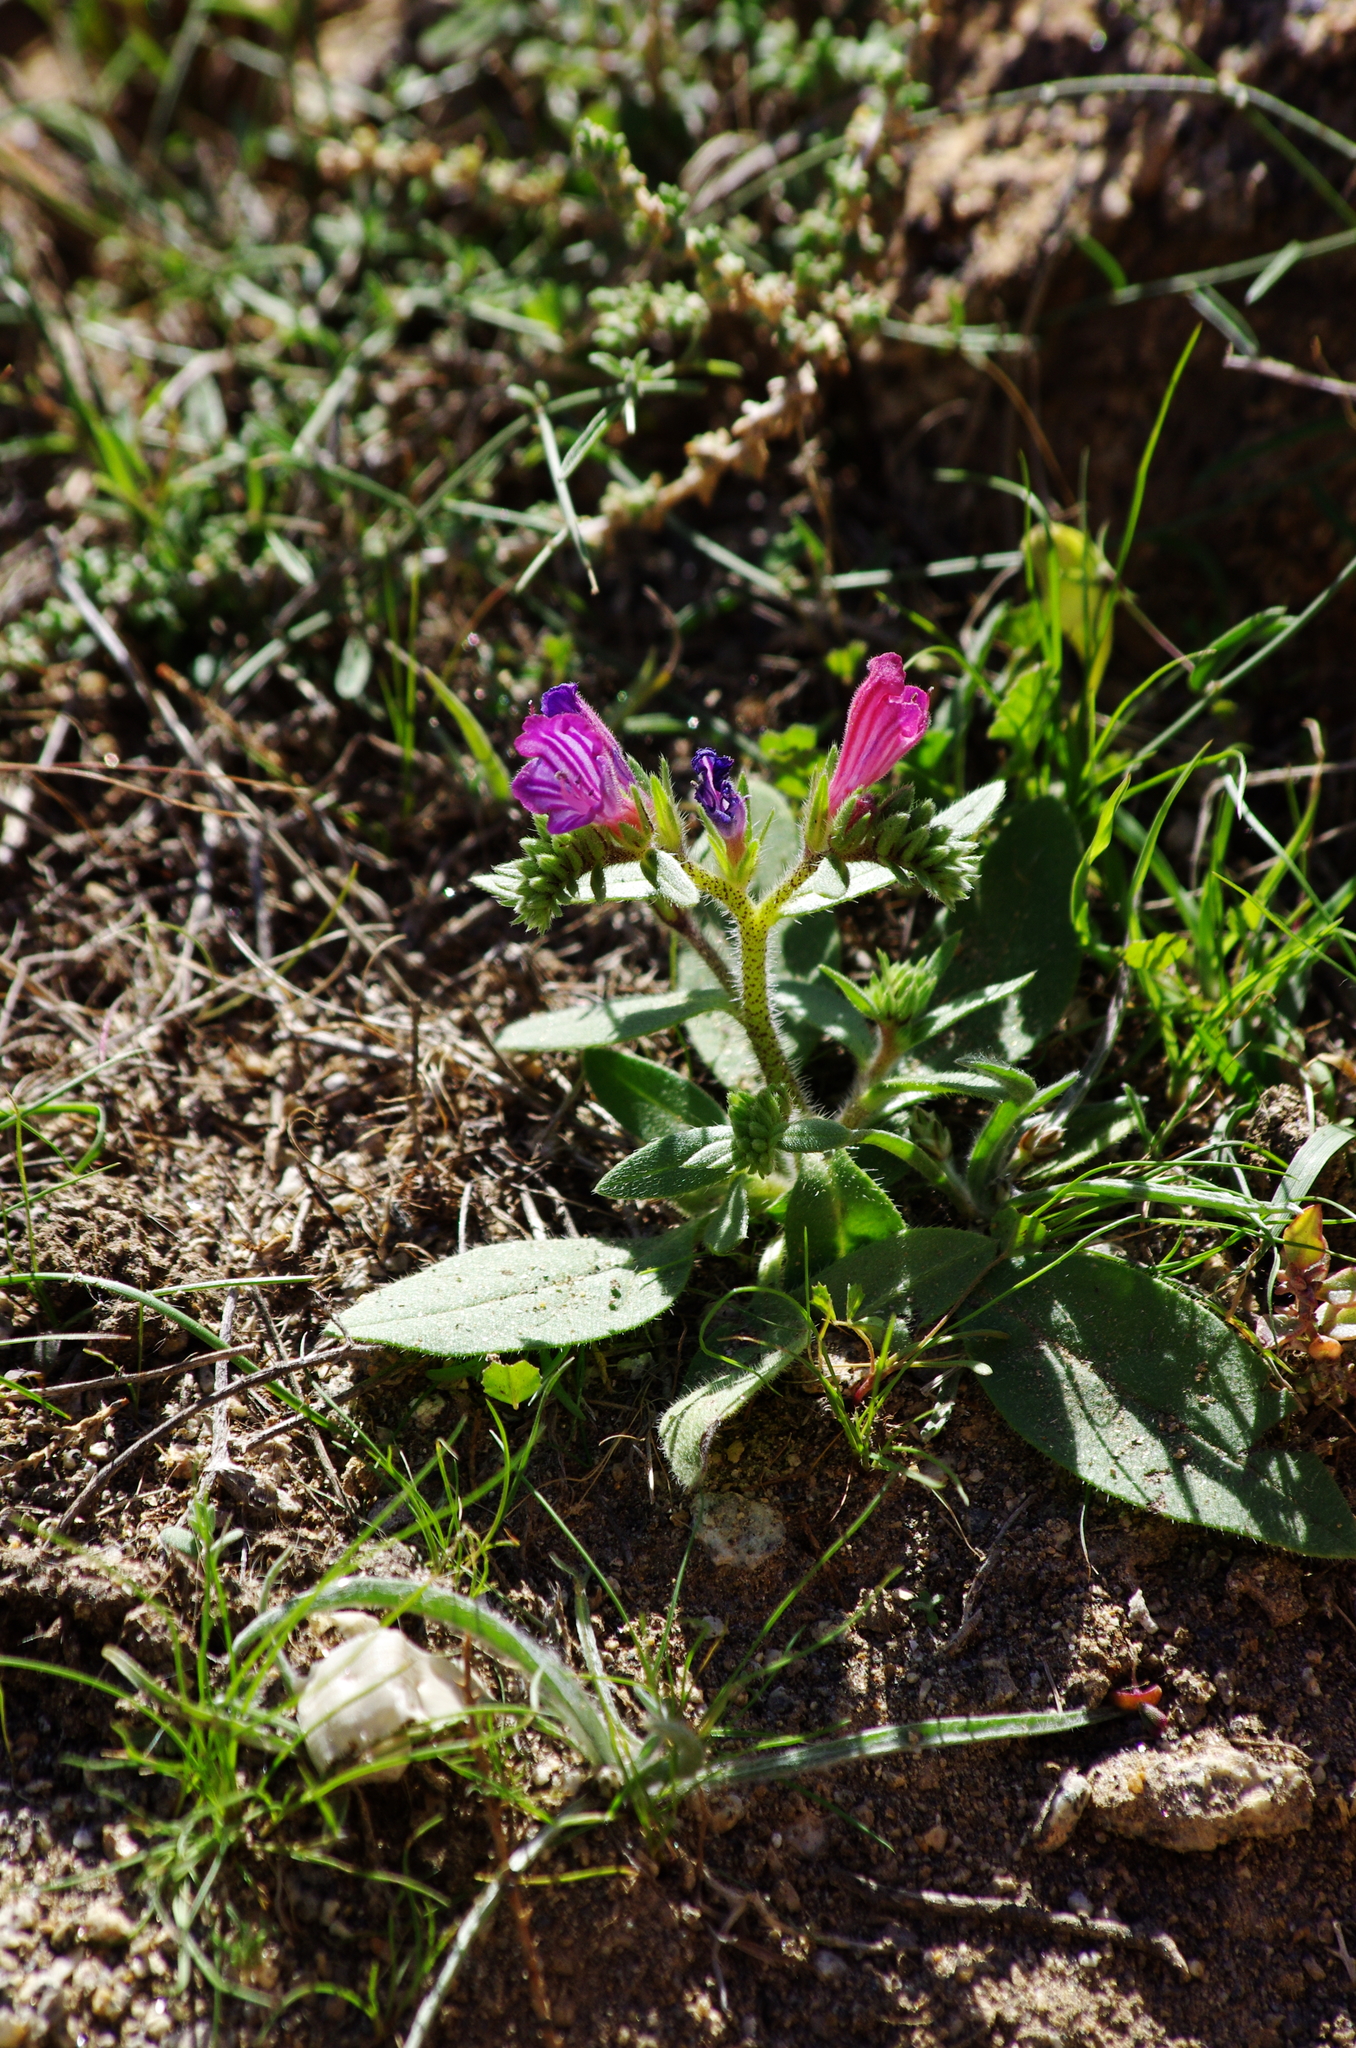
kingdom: Plantae
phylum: Tracheophyta
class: Magnoliopsida
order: Boraginales
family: Boraginaceae
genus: Echium
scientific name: Echium bonnetii
